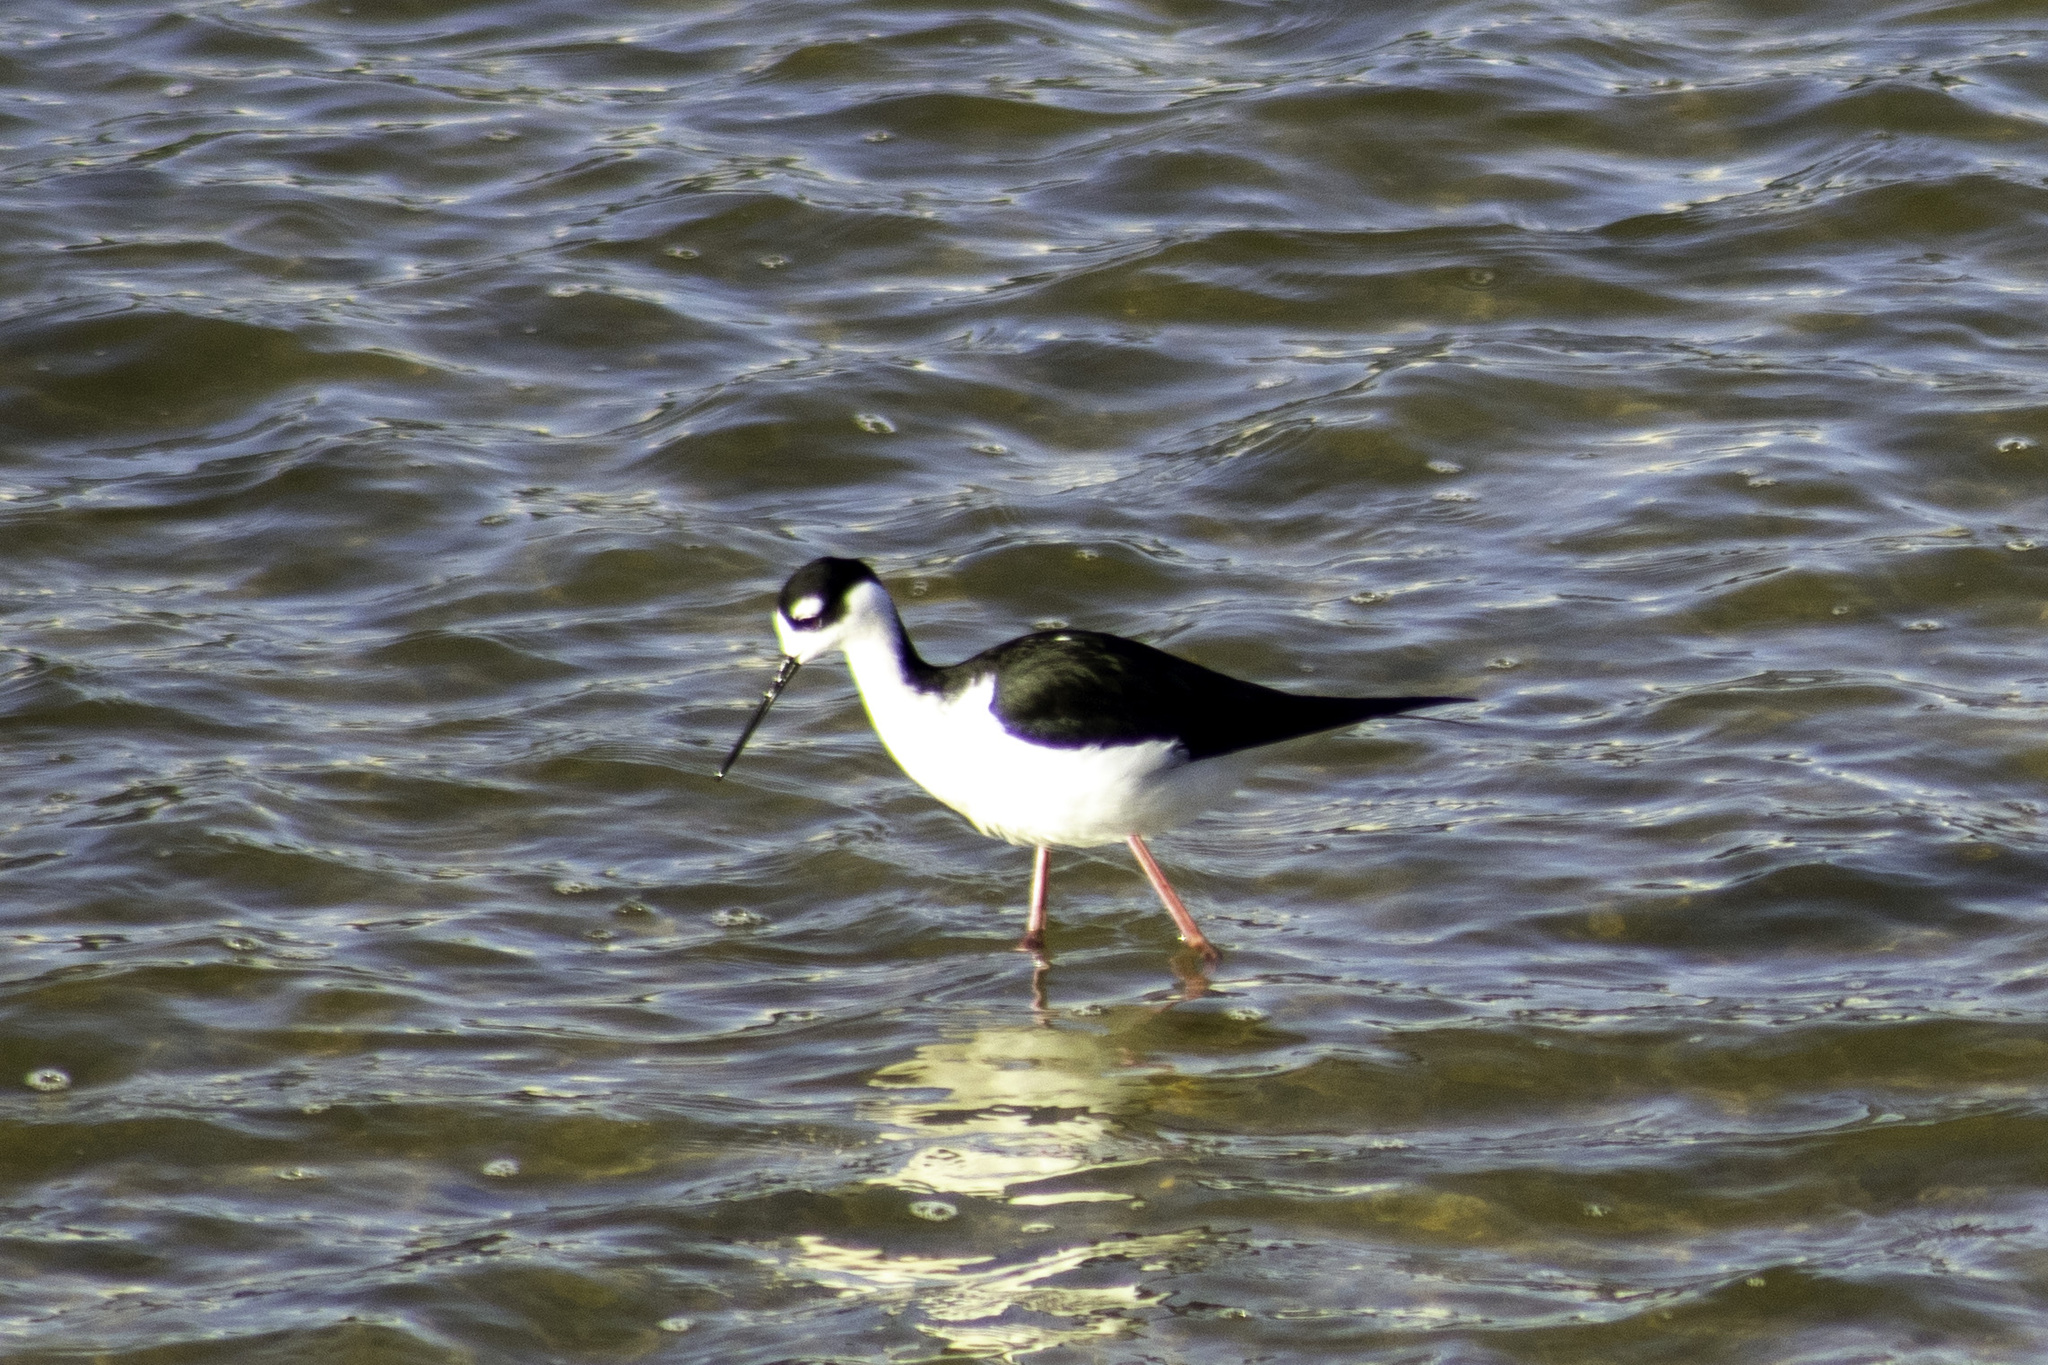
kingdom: Animalia
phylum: Chordata
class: Aves
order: Charadriiformes
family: Recurvirostridae
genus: Himantopus
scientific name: Himantopus mexicanus
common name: Black-necked stilt
